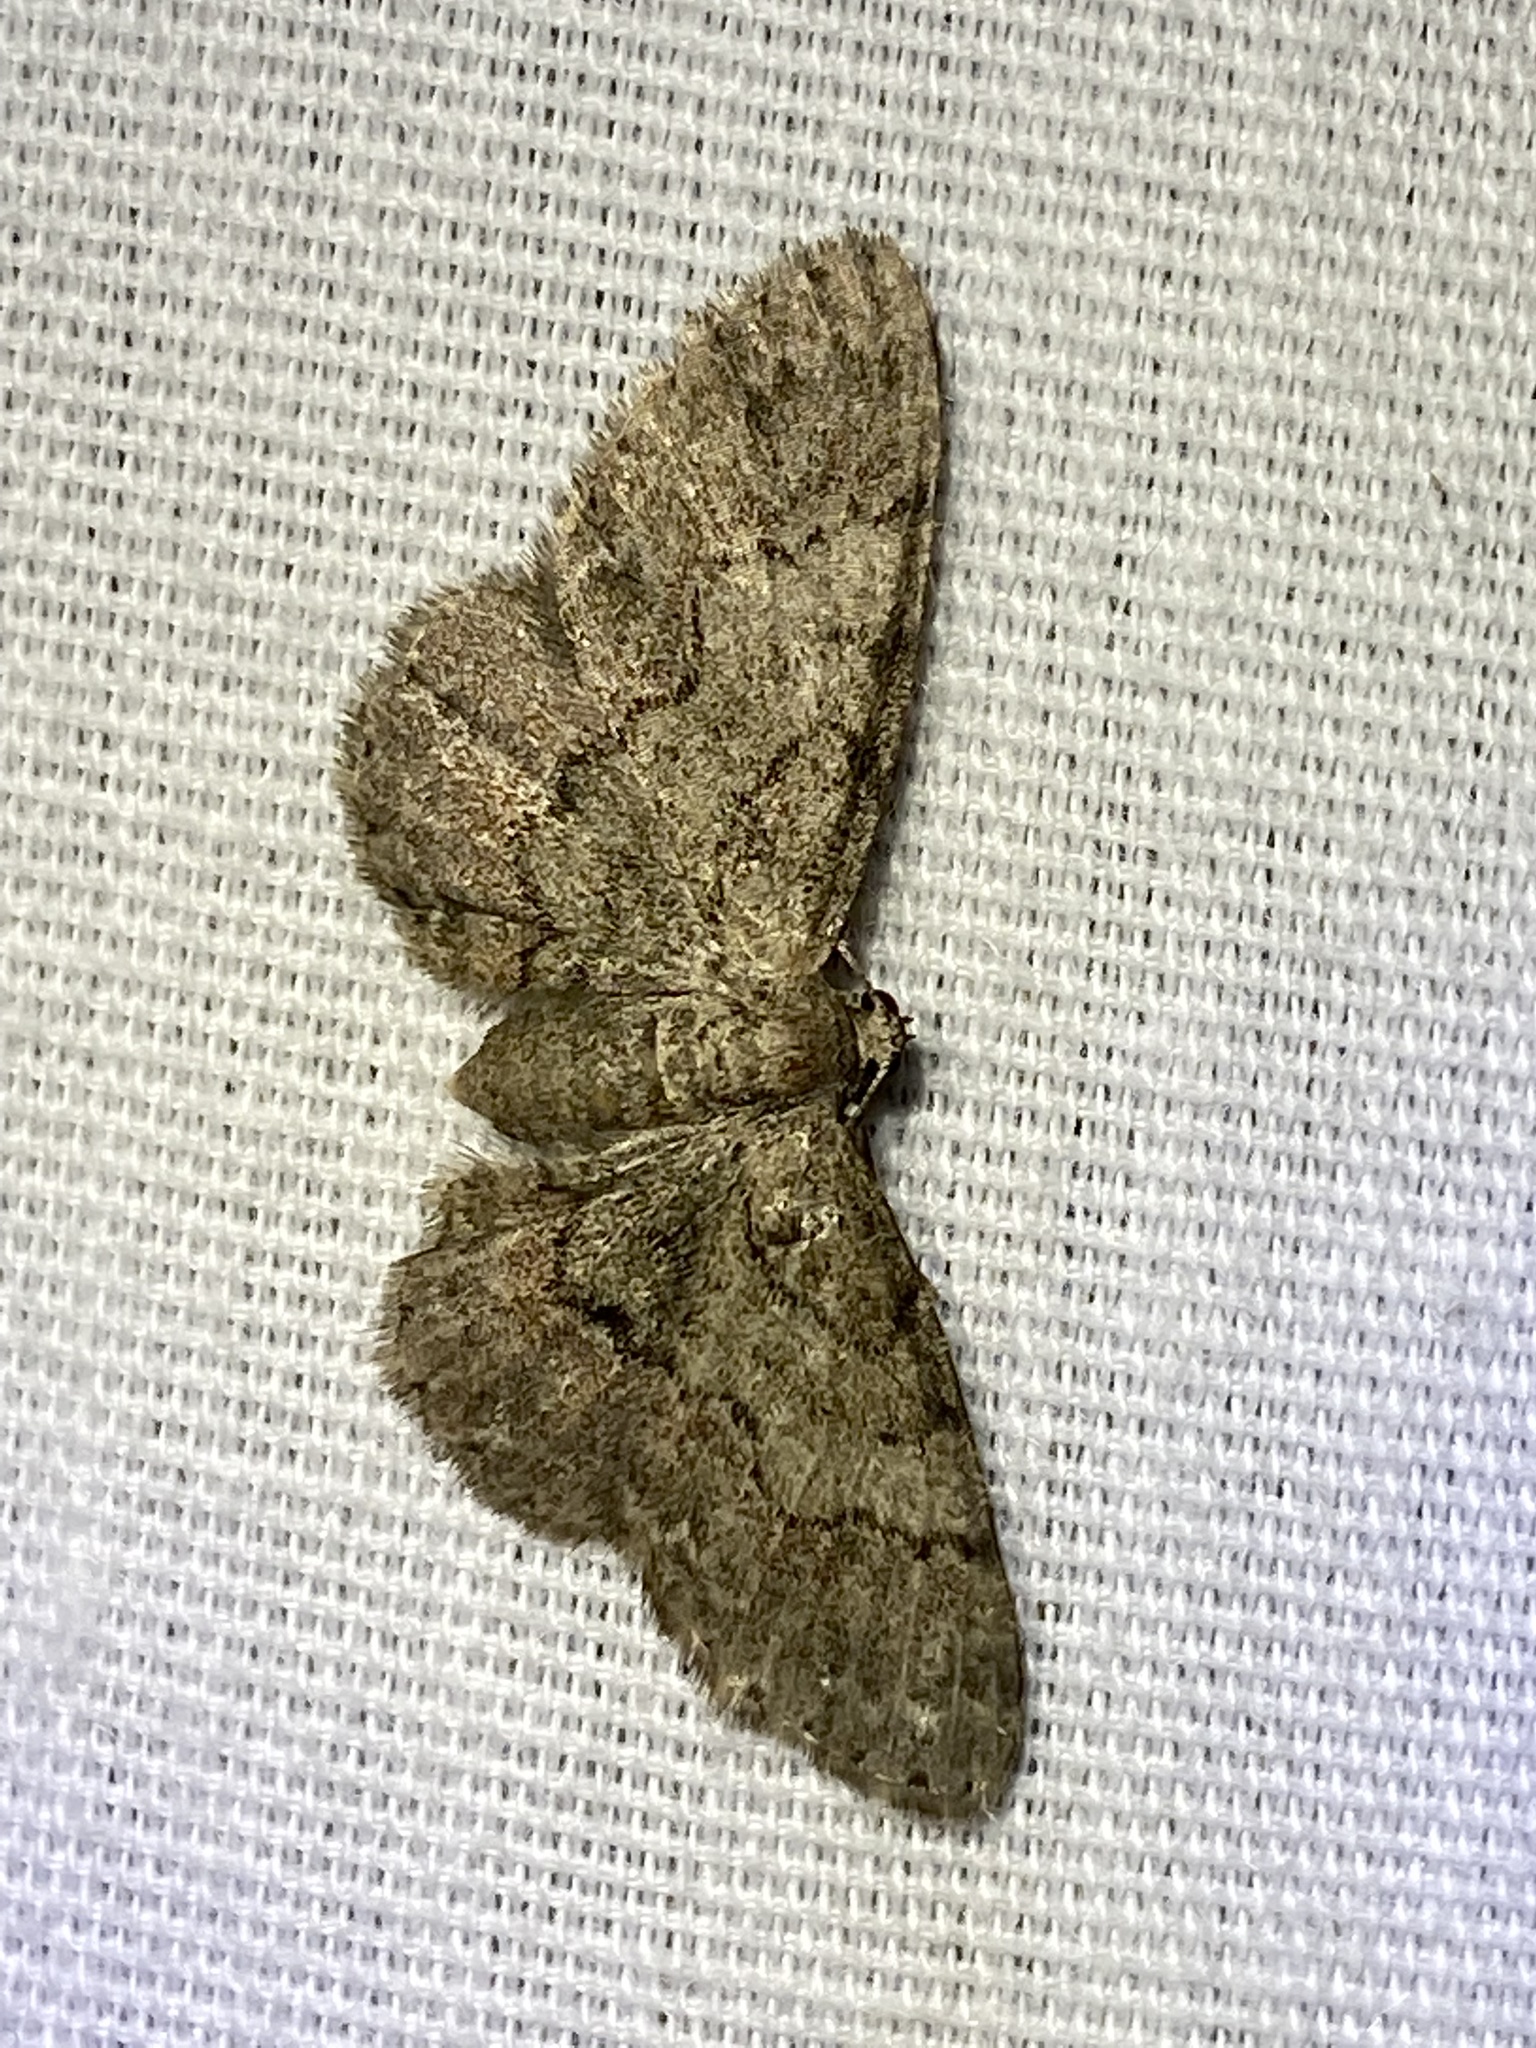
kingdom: Animalia
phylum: Arthropoda
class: Insecta
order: Lepidoptera
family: Geometridae
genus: Glenoides
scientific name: Glenoides texanaria
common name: Texas gray
